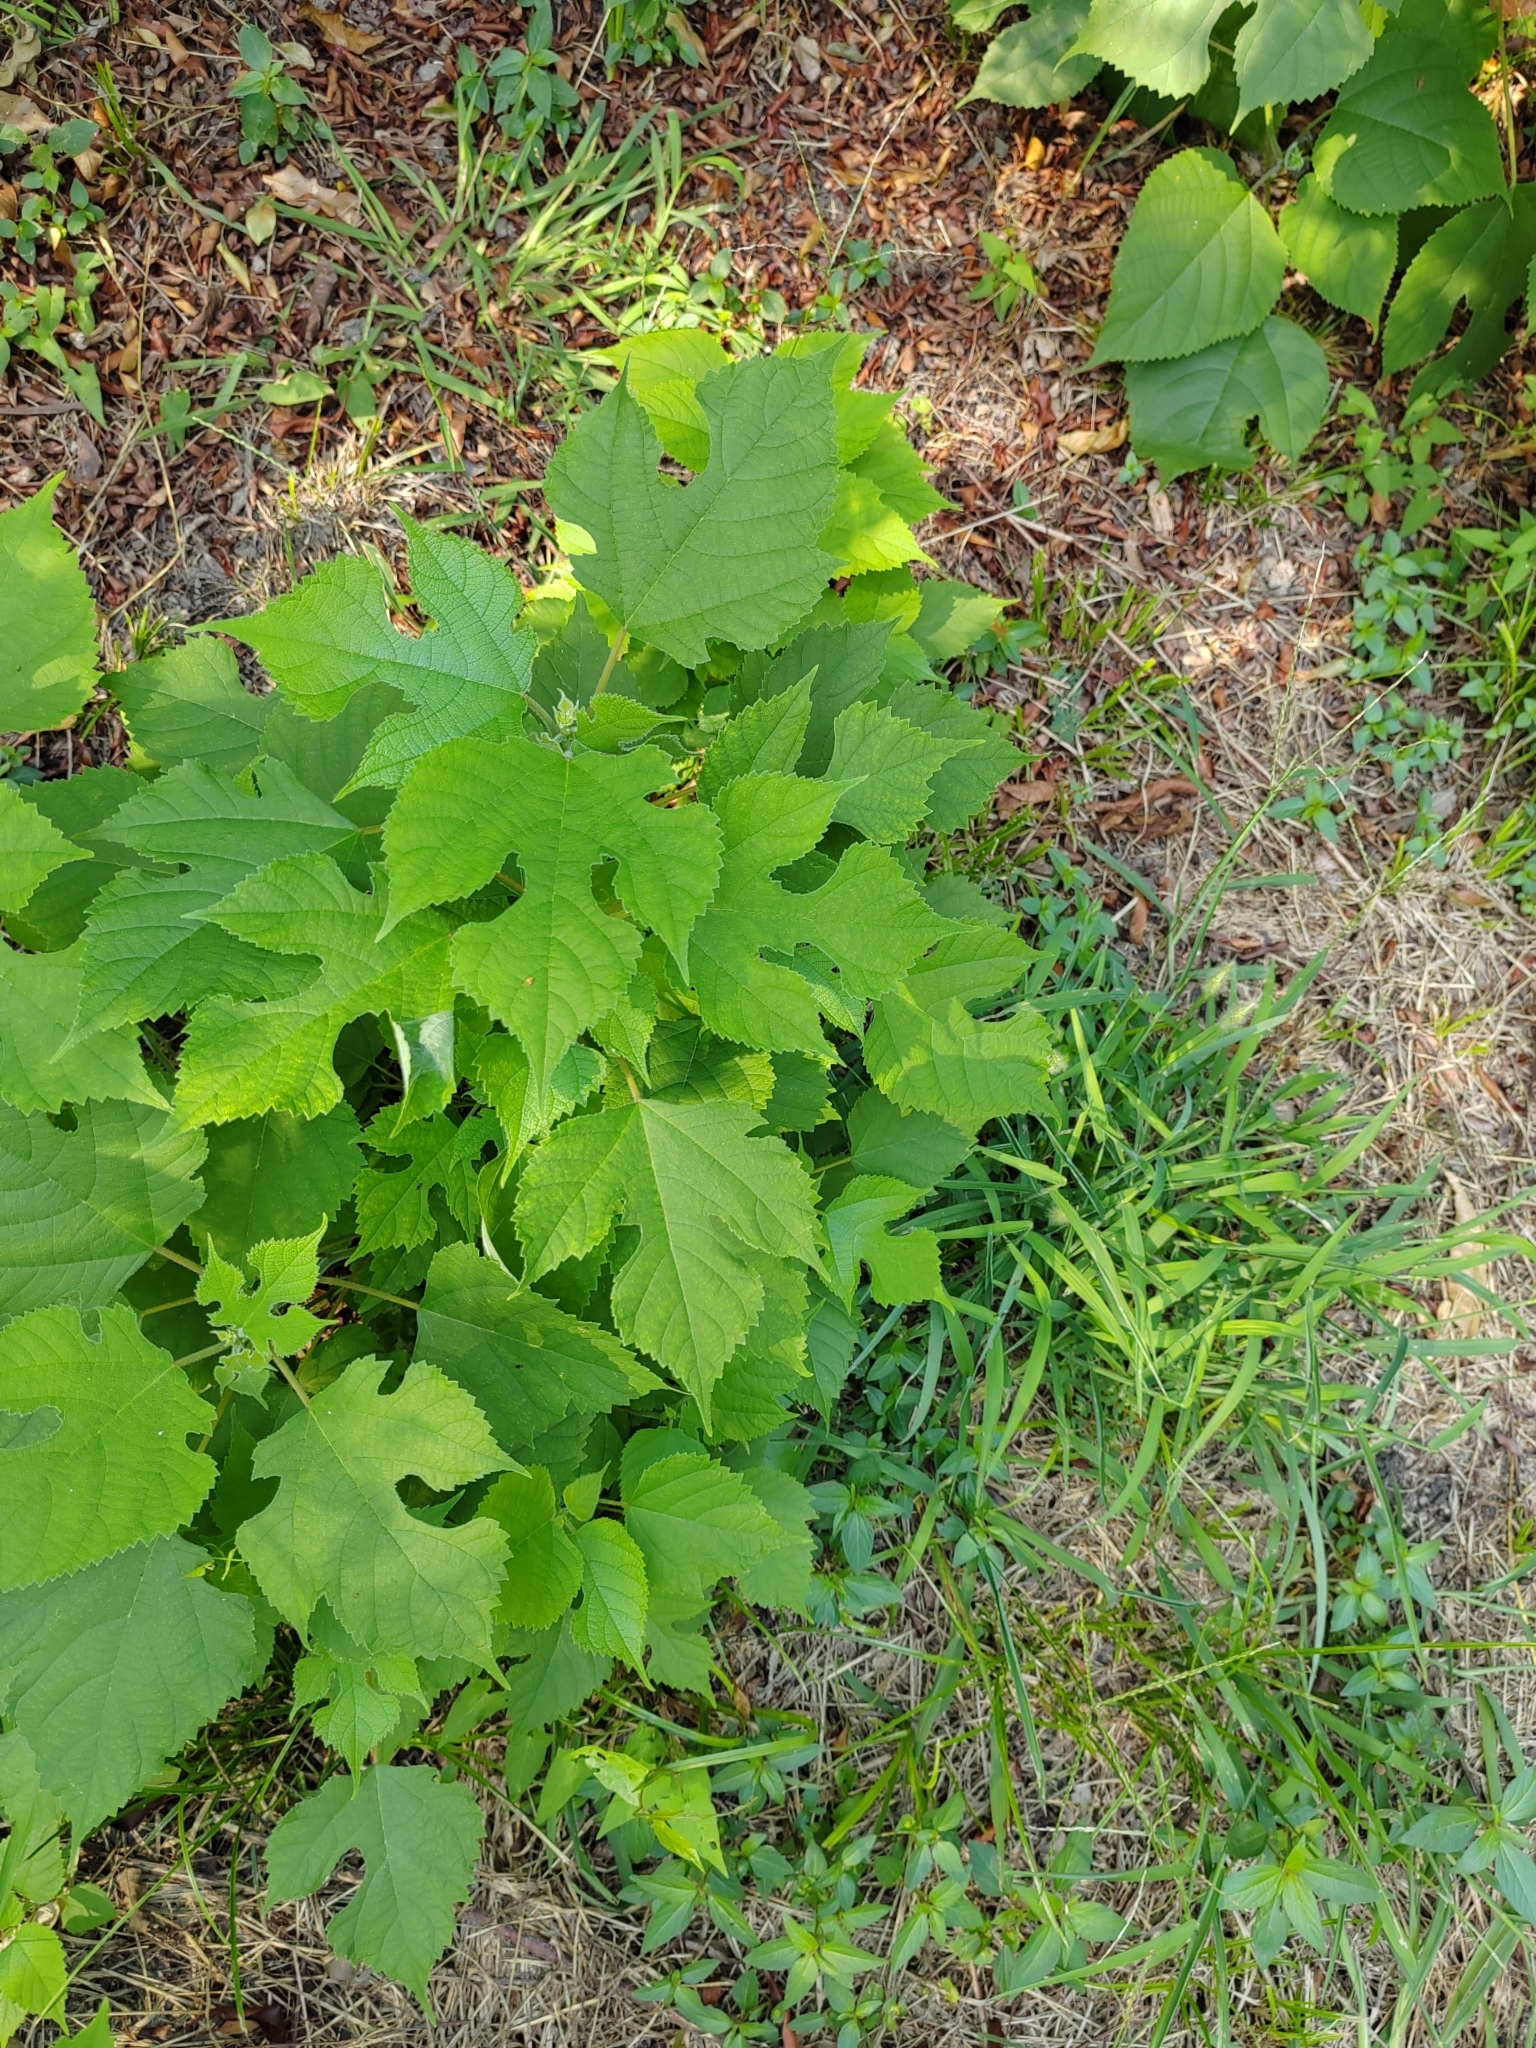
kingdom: Plantae
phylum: Tracheophyta
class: Magnoliopsida
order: Rosales
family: Moraceae
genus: Broussonetia
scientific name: Broussonetia papyrifera
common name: Paper mulberry
